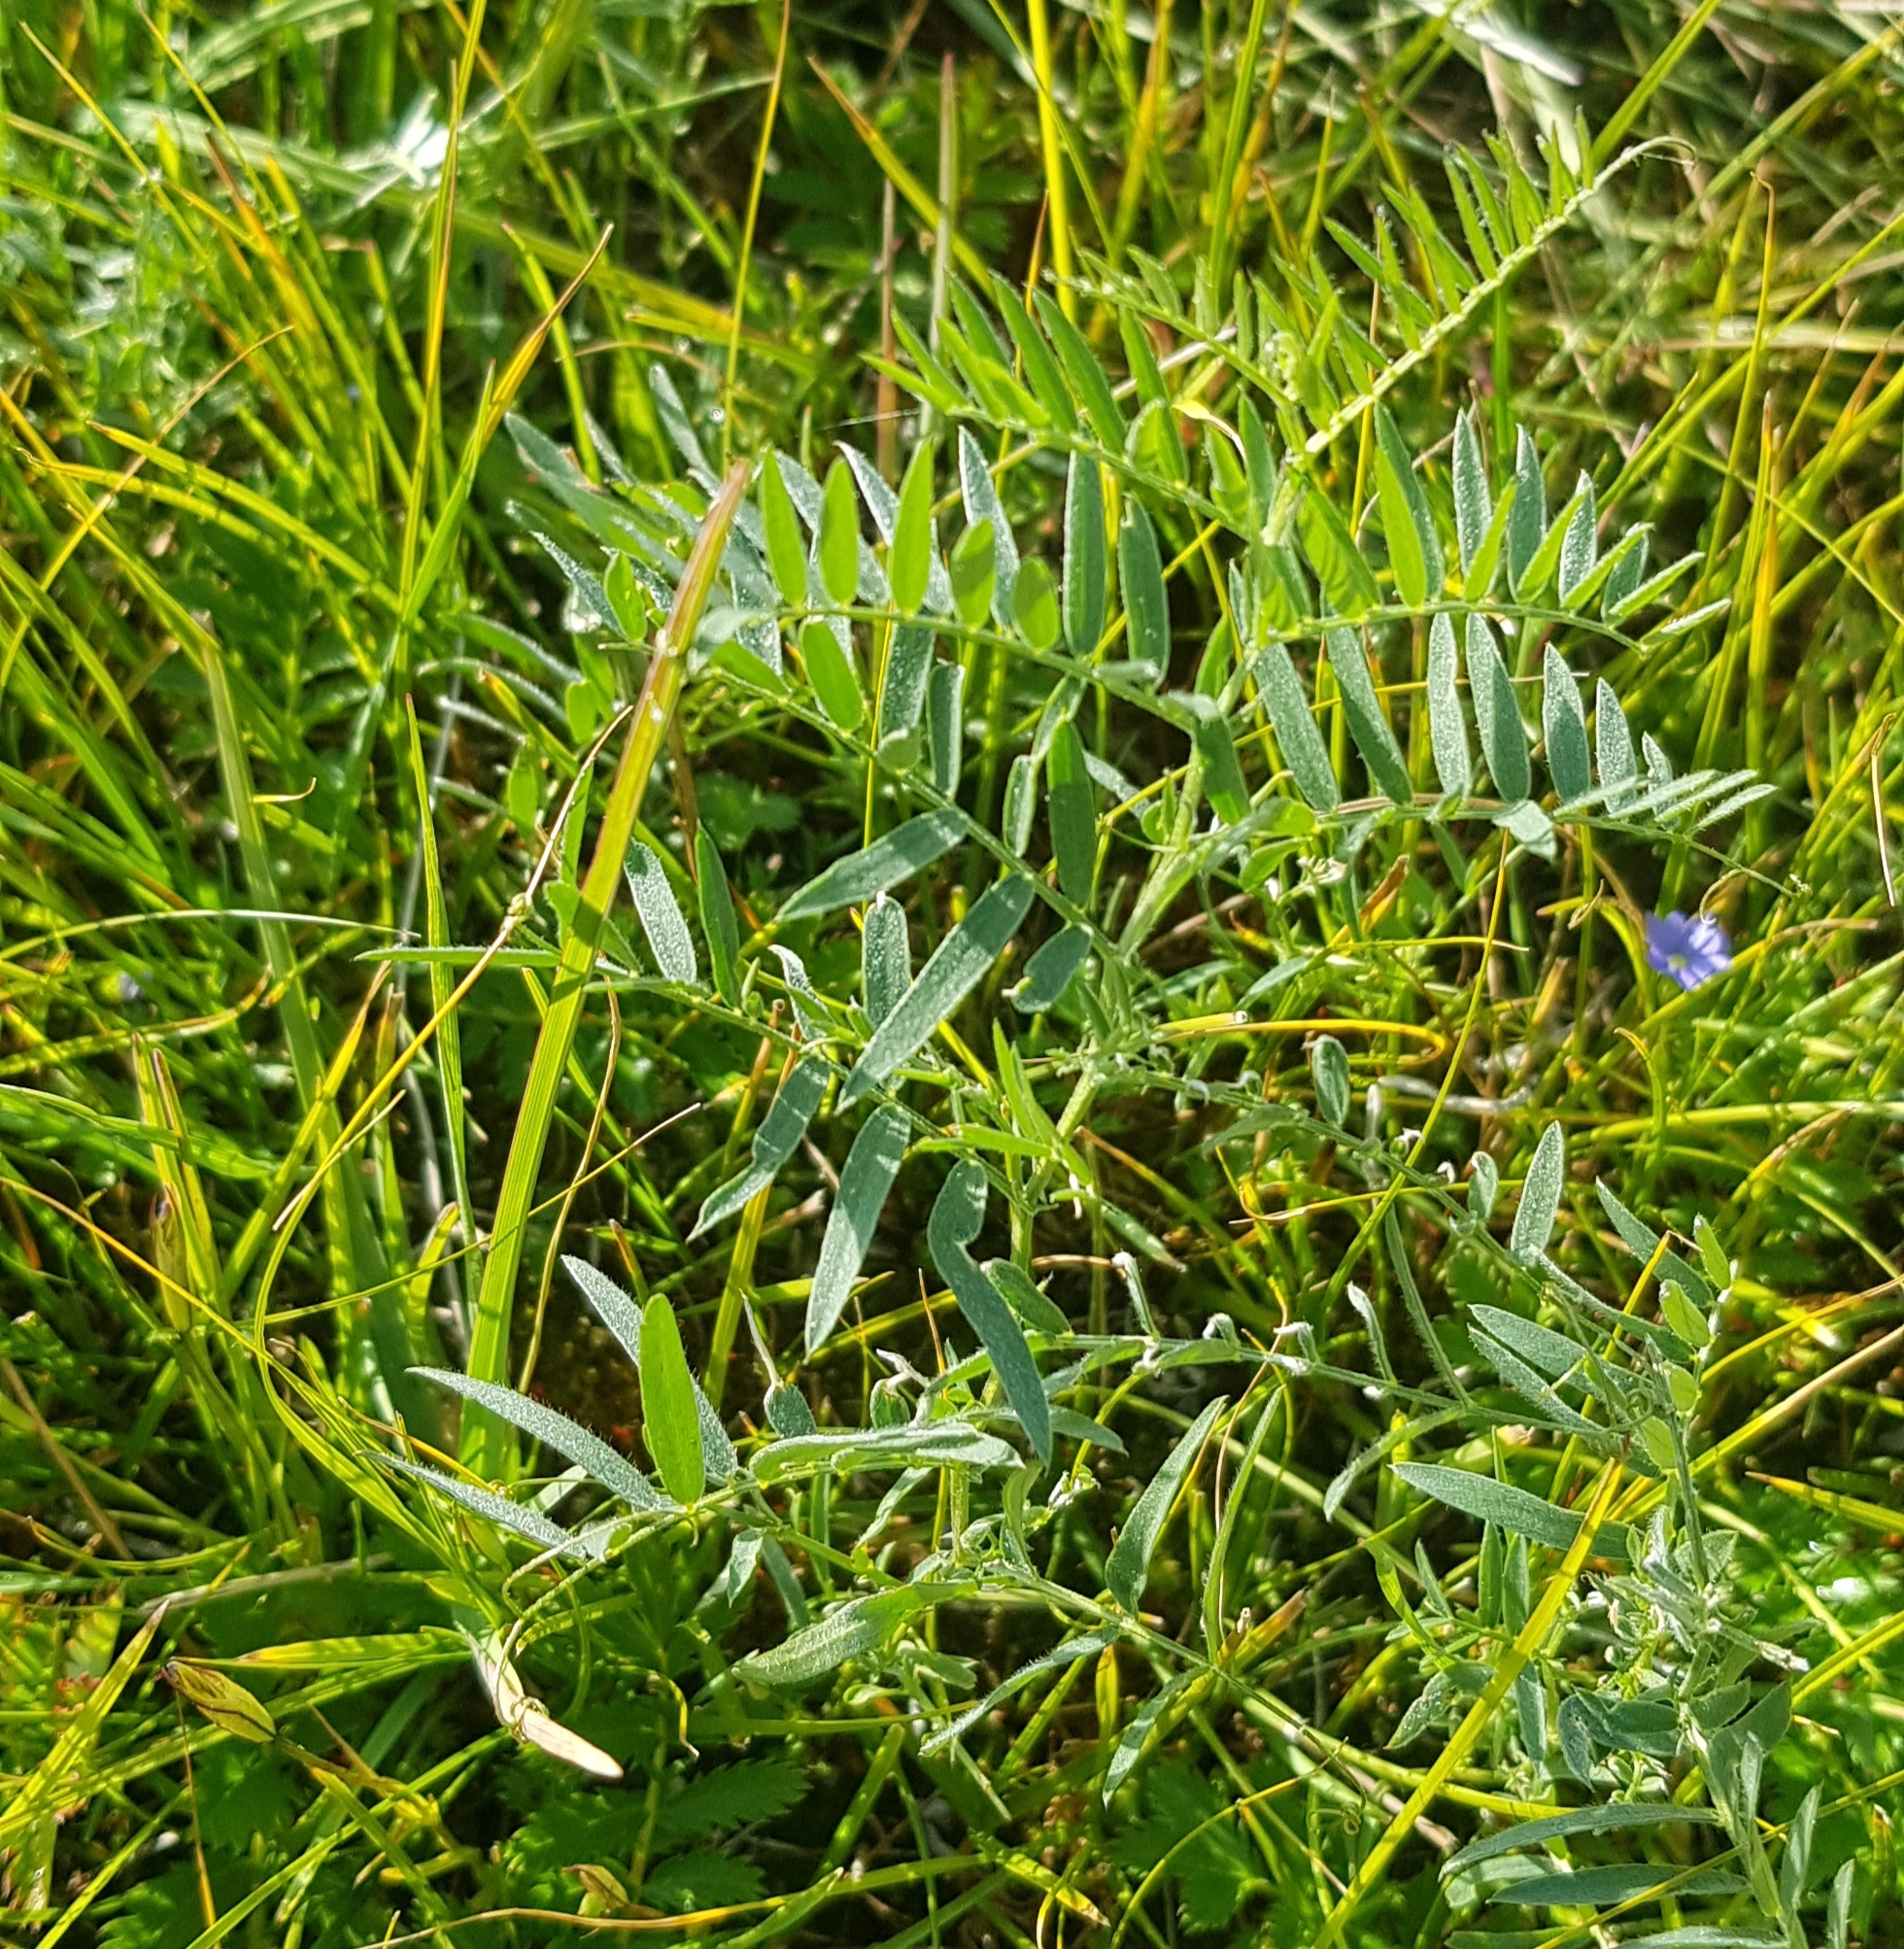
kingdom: Plantae
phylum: Tracheophyta
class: Magnoliopsida
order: Fabales
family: Fabaceae
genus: Astragalus
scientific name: Astragalus onobrychis
